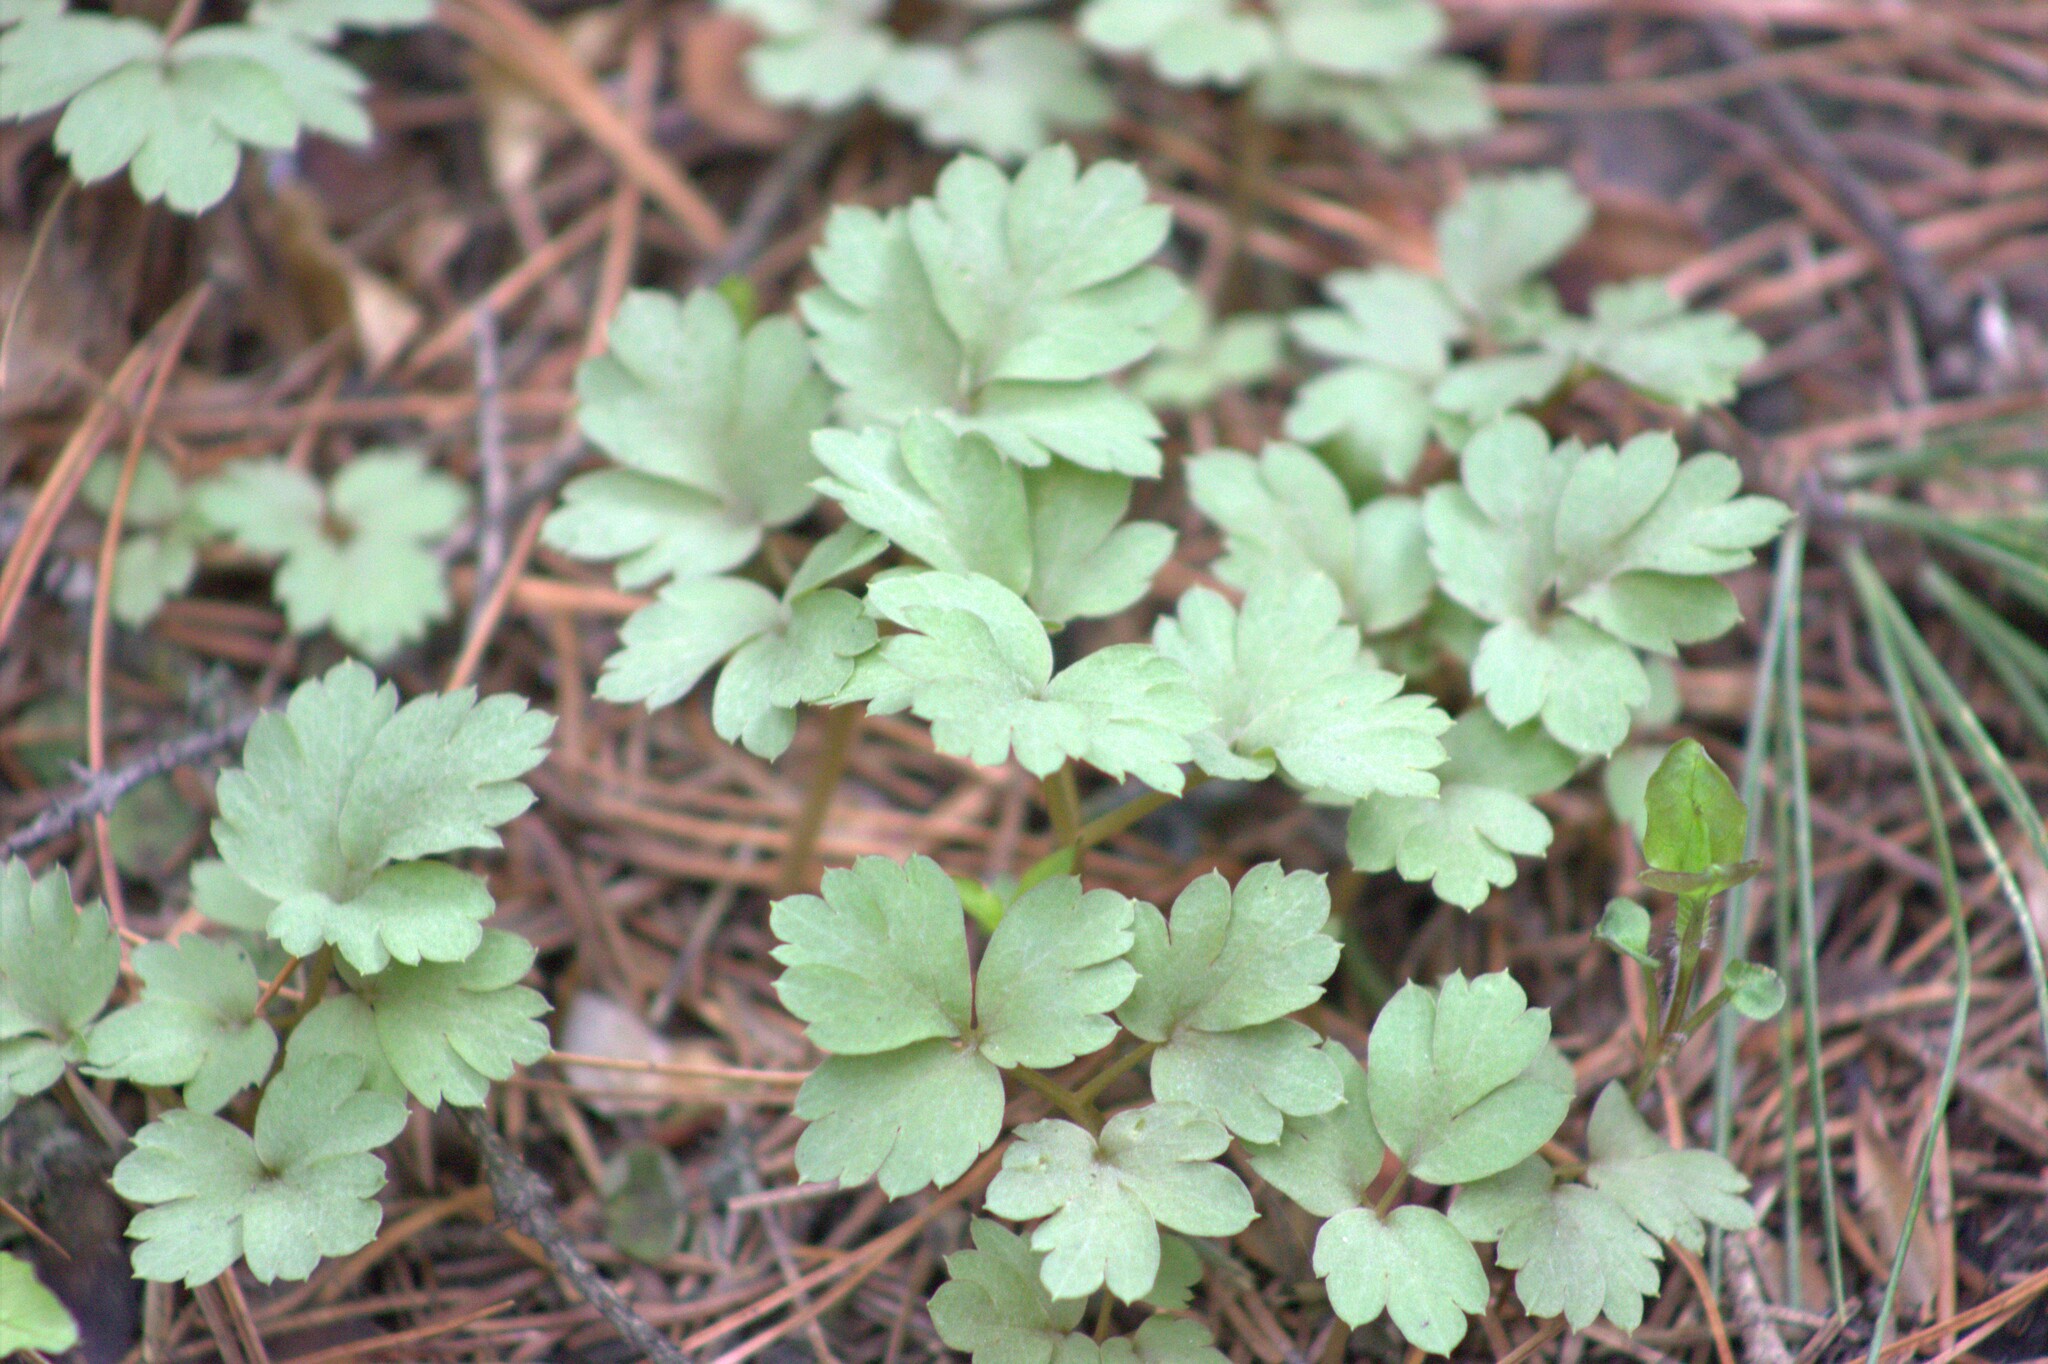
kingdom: Plantae
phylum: Tracheophyta
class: Magnoliopsida
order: Dipsacales
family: Viburnaceae
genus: Adoxa
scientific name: Adoxa moschatellina
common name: Moschatel
